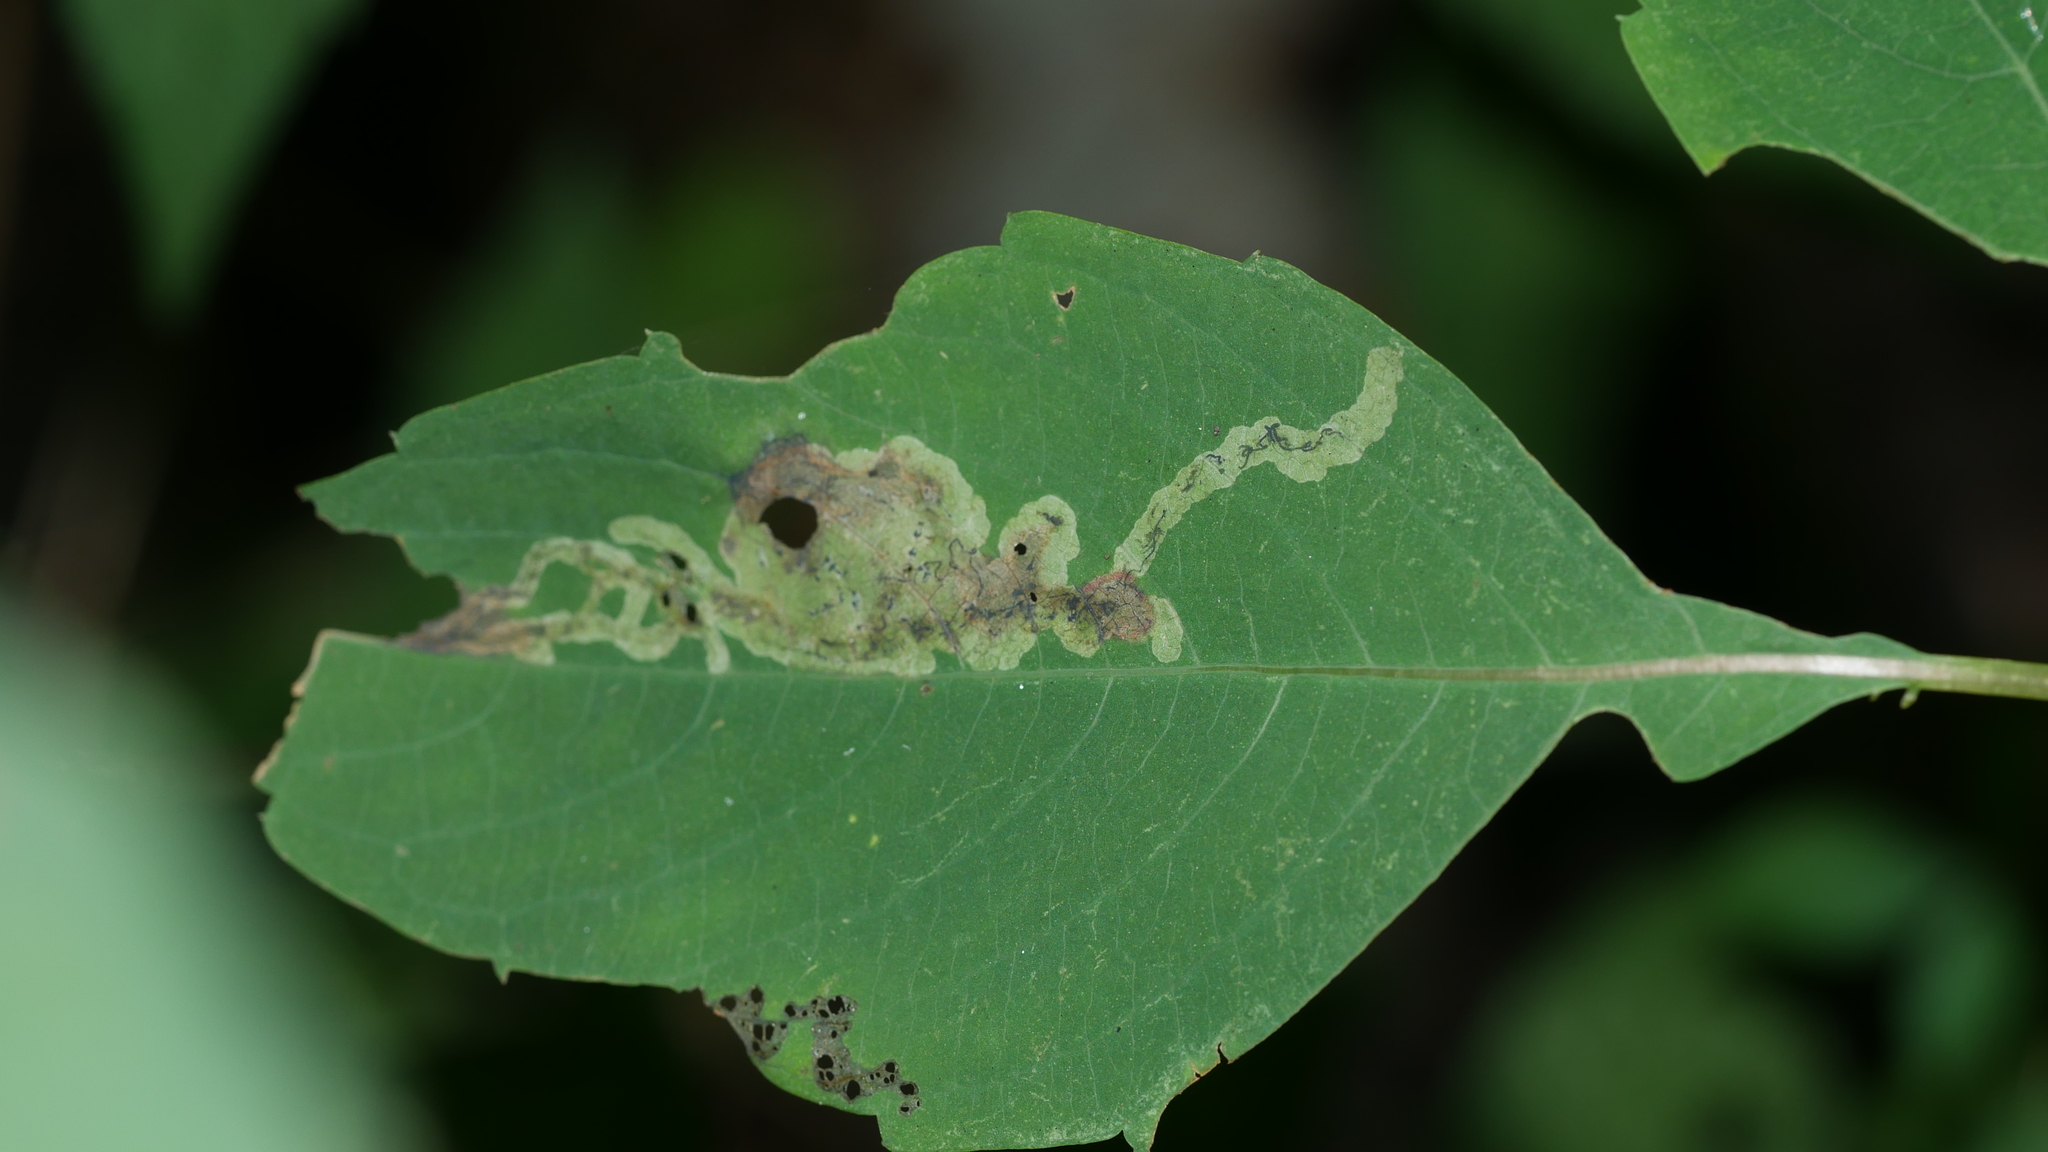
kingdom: Animalia
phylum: Arthropoda
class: Insecta
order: Diptera
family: Agromyzidae
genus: Phytoliriomyza
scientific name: Phytoliriomyza melampyga
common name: Jewelweed leaf-miner fly
